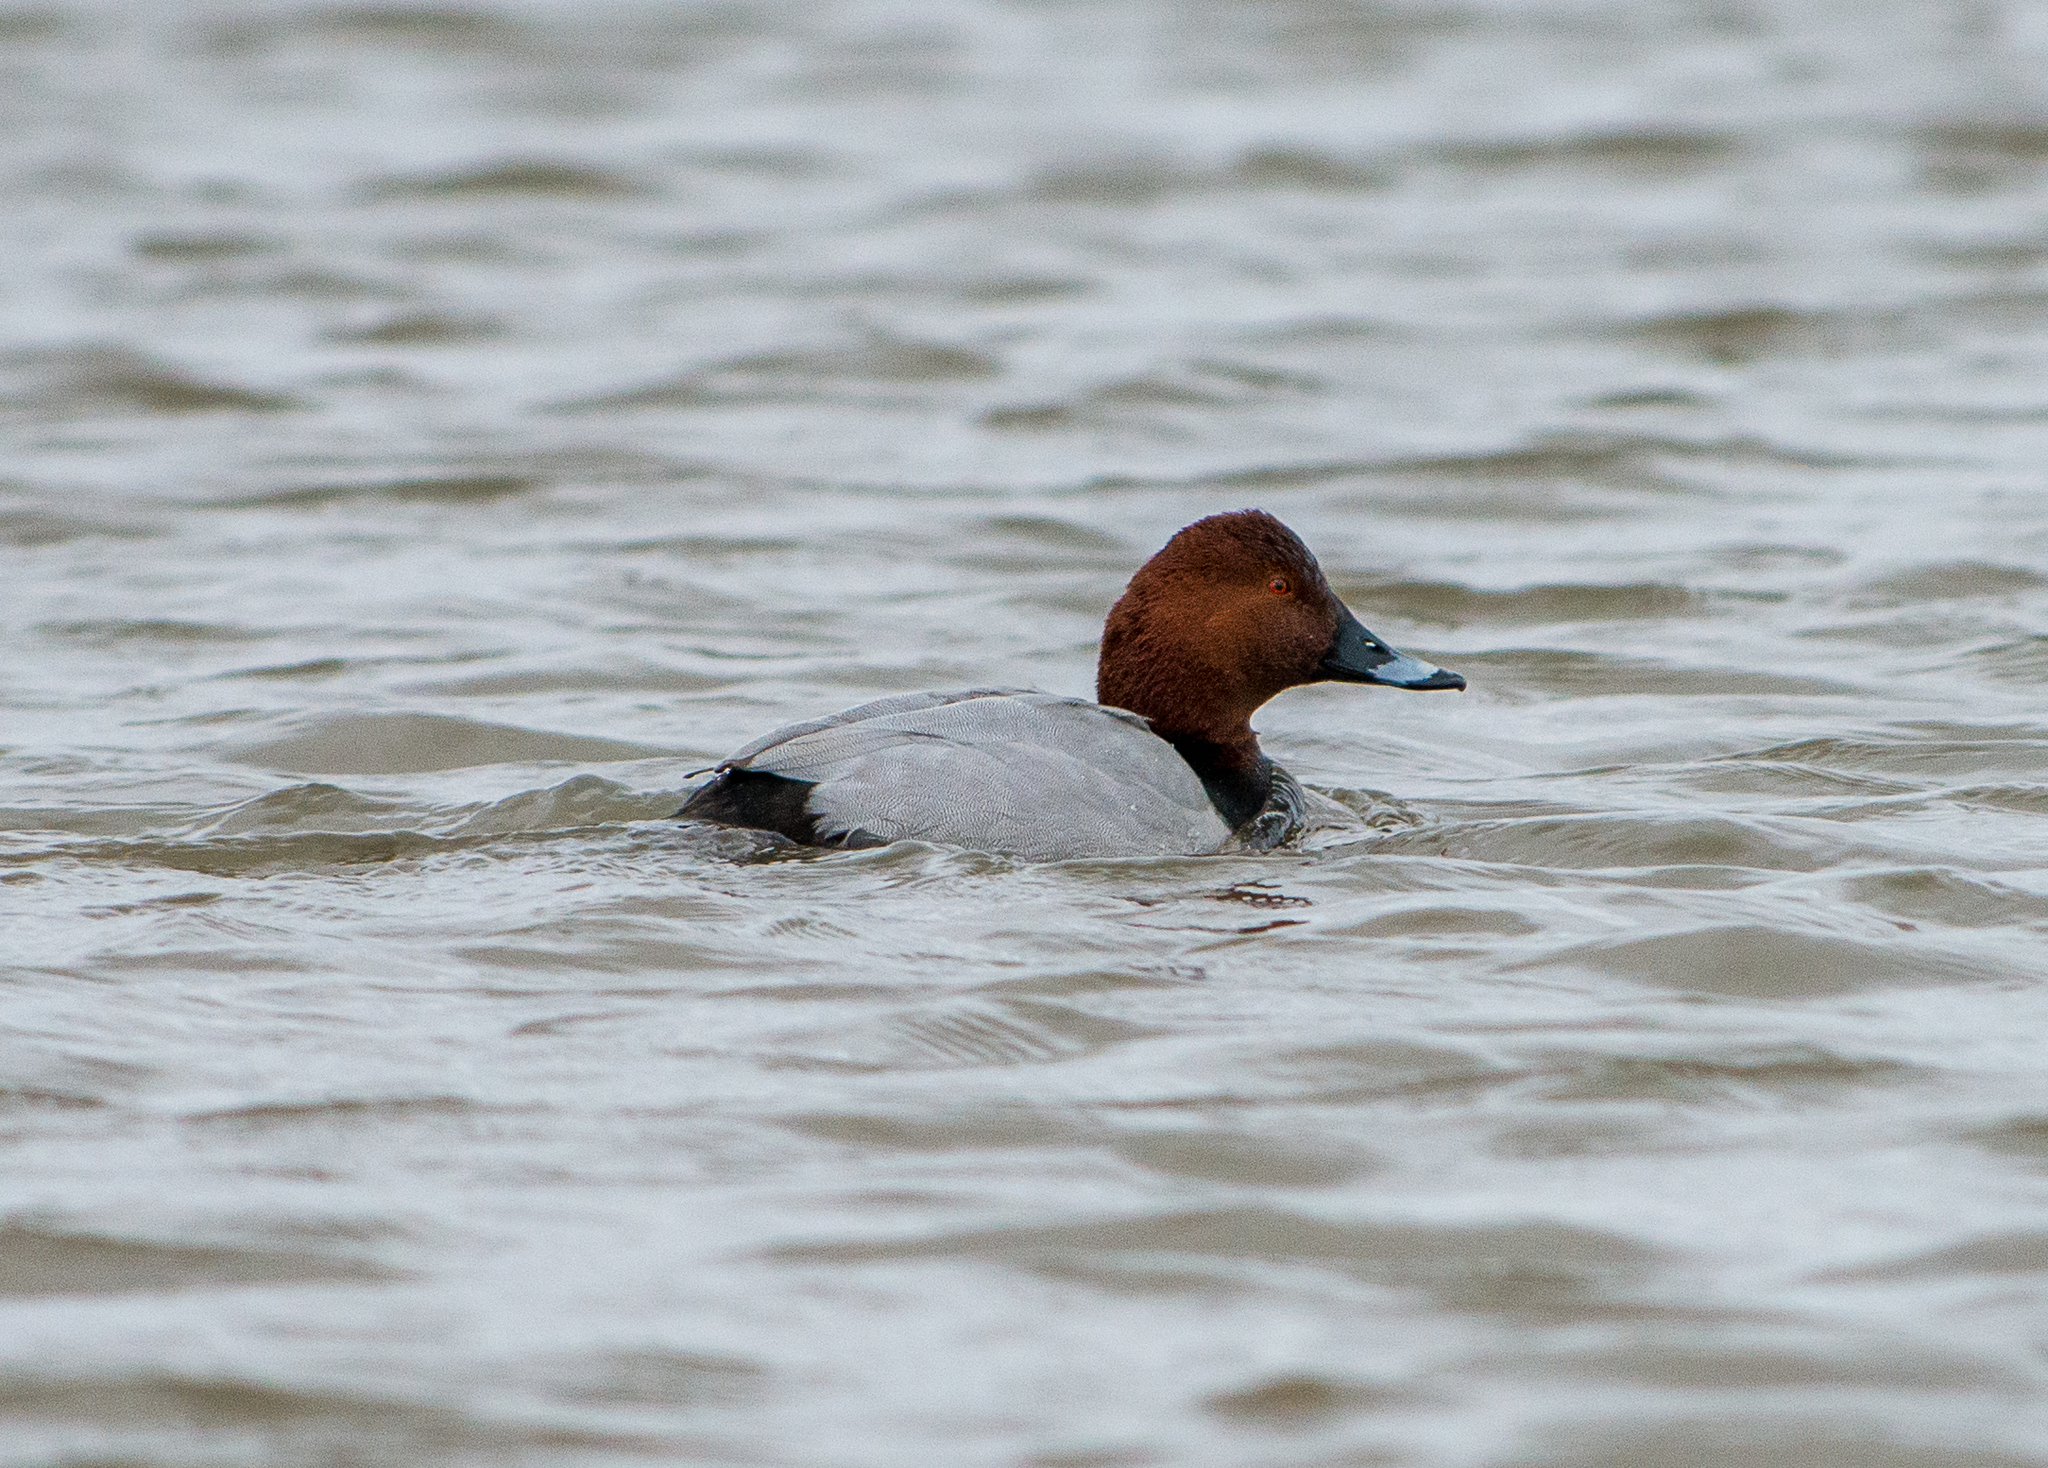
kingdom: Animalia
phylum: Chordata
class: Aves
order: Anseriformes
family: Anatidae
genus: Aythya
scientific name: Aythya ferina
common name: Common pochard
